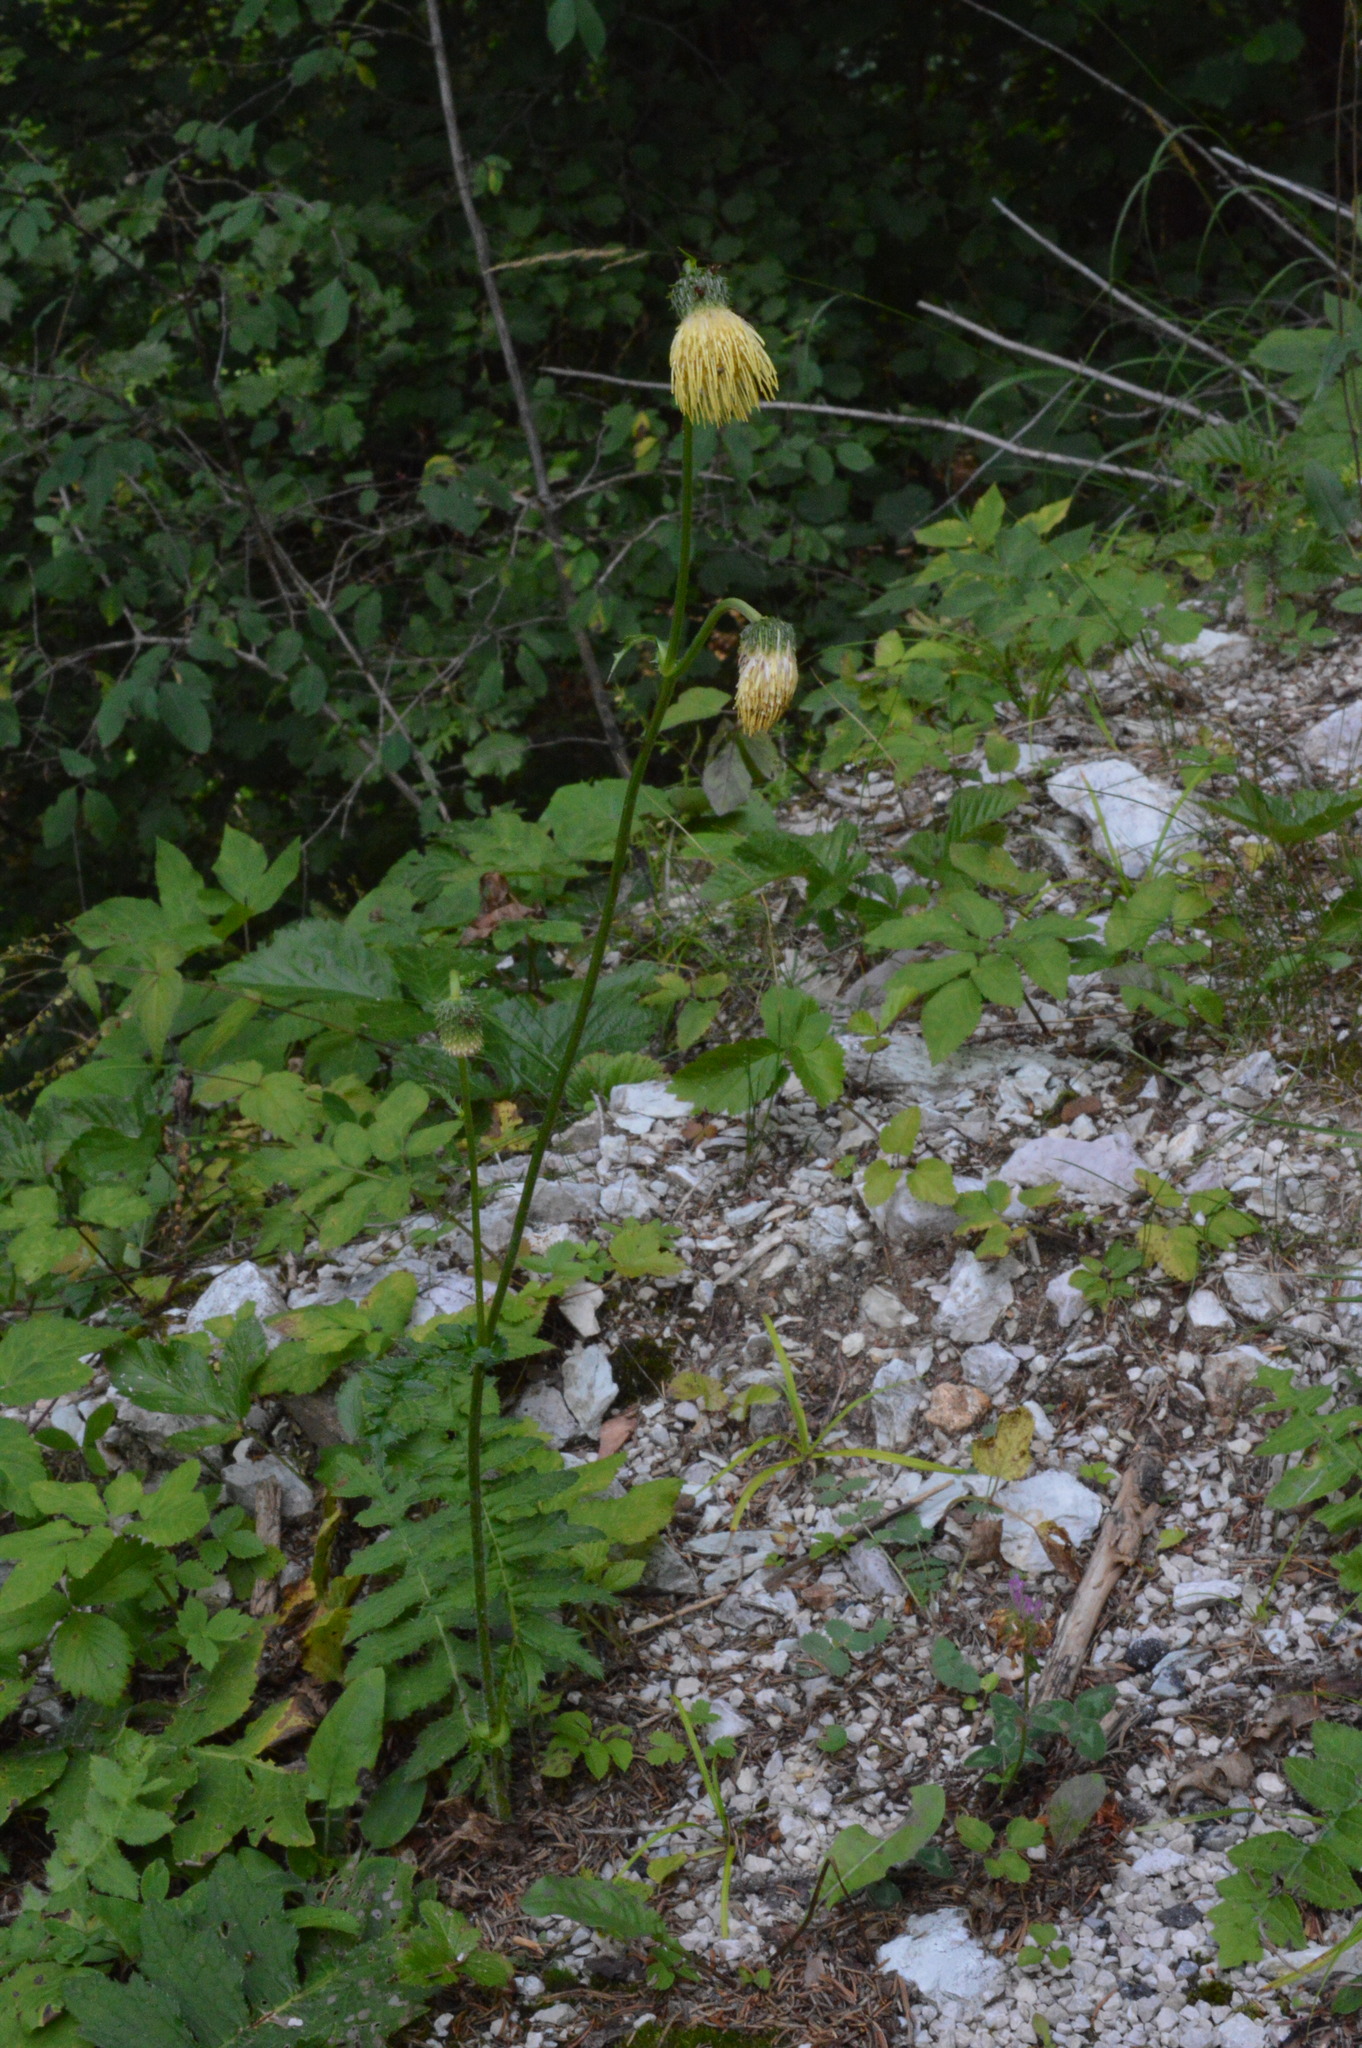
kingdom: Plantae
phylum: Tracheophyta
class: Magnoliopsida
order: Asterales
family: Asteraceae
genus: Cirsium
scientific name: Cirsium erisithales
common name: Yellow thistle
